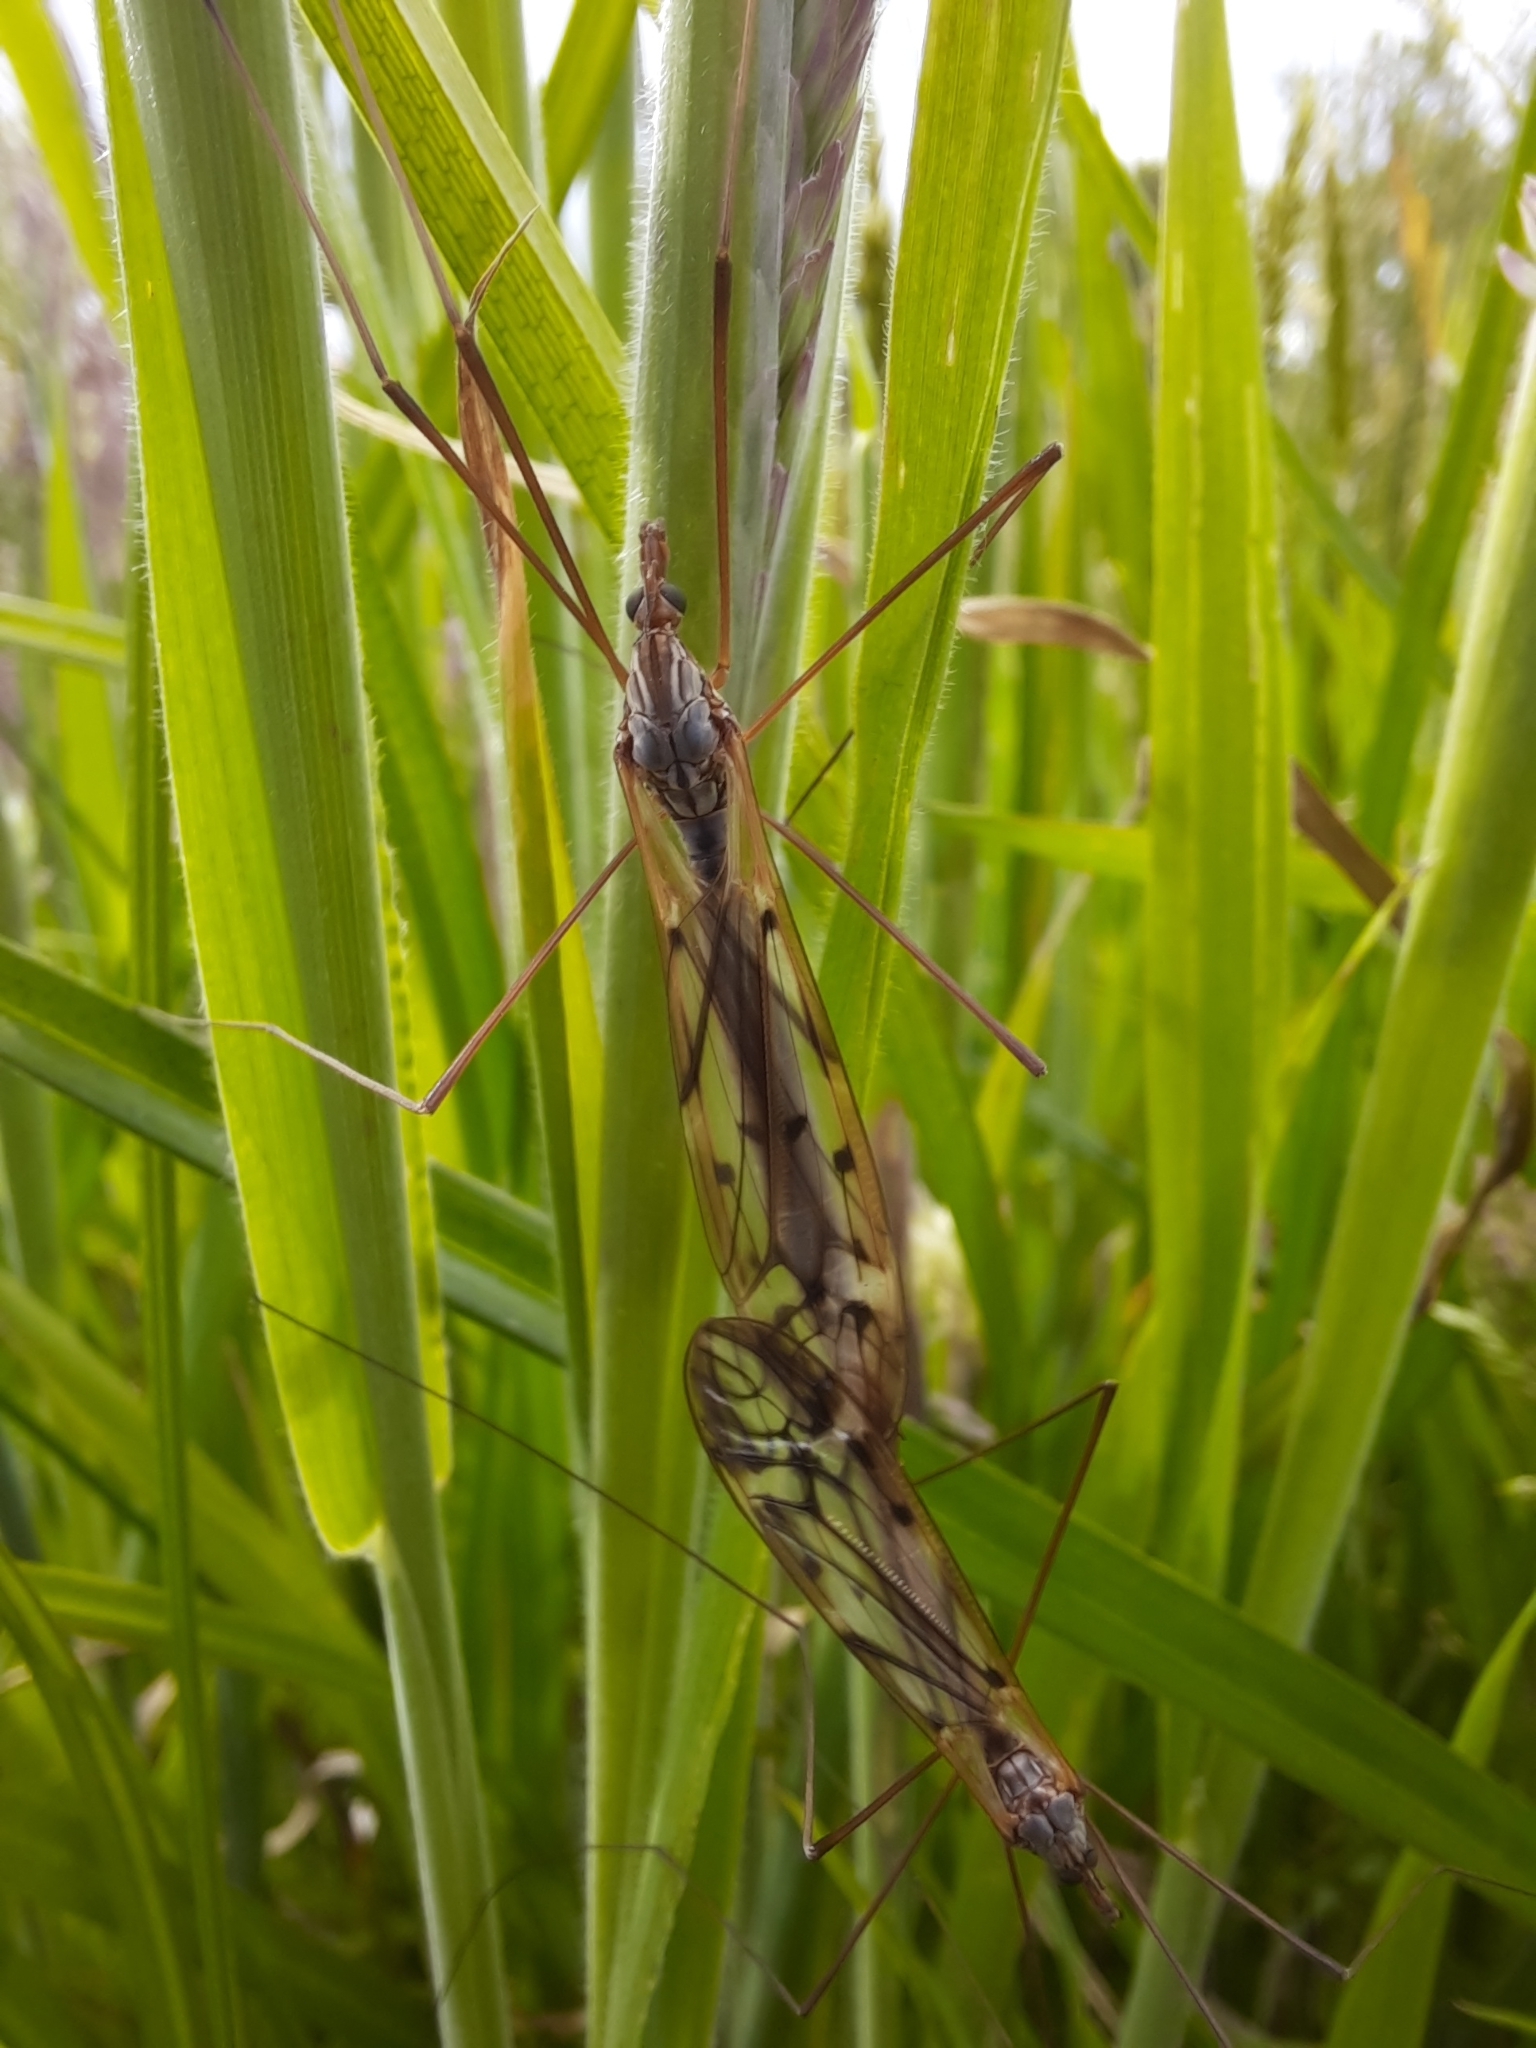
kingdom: Animalia
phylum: Arthropoda
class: Insecta
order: Diptera
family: Tipulidae
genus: Zelandotipula
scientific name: Zelandotipula novarae
